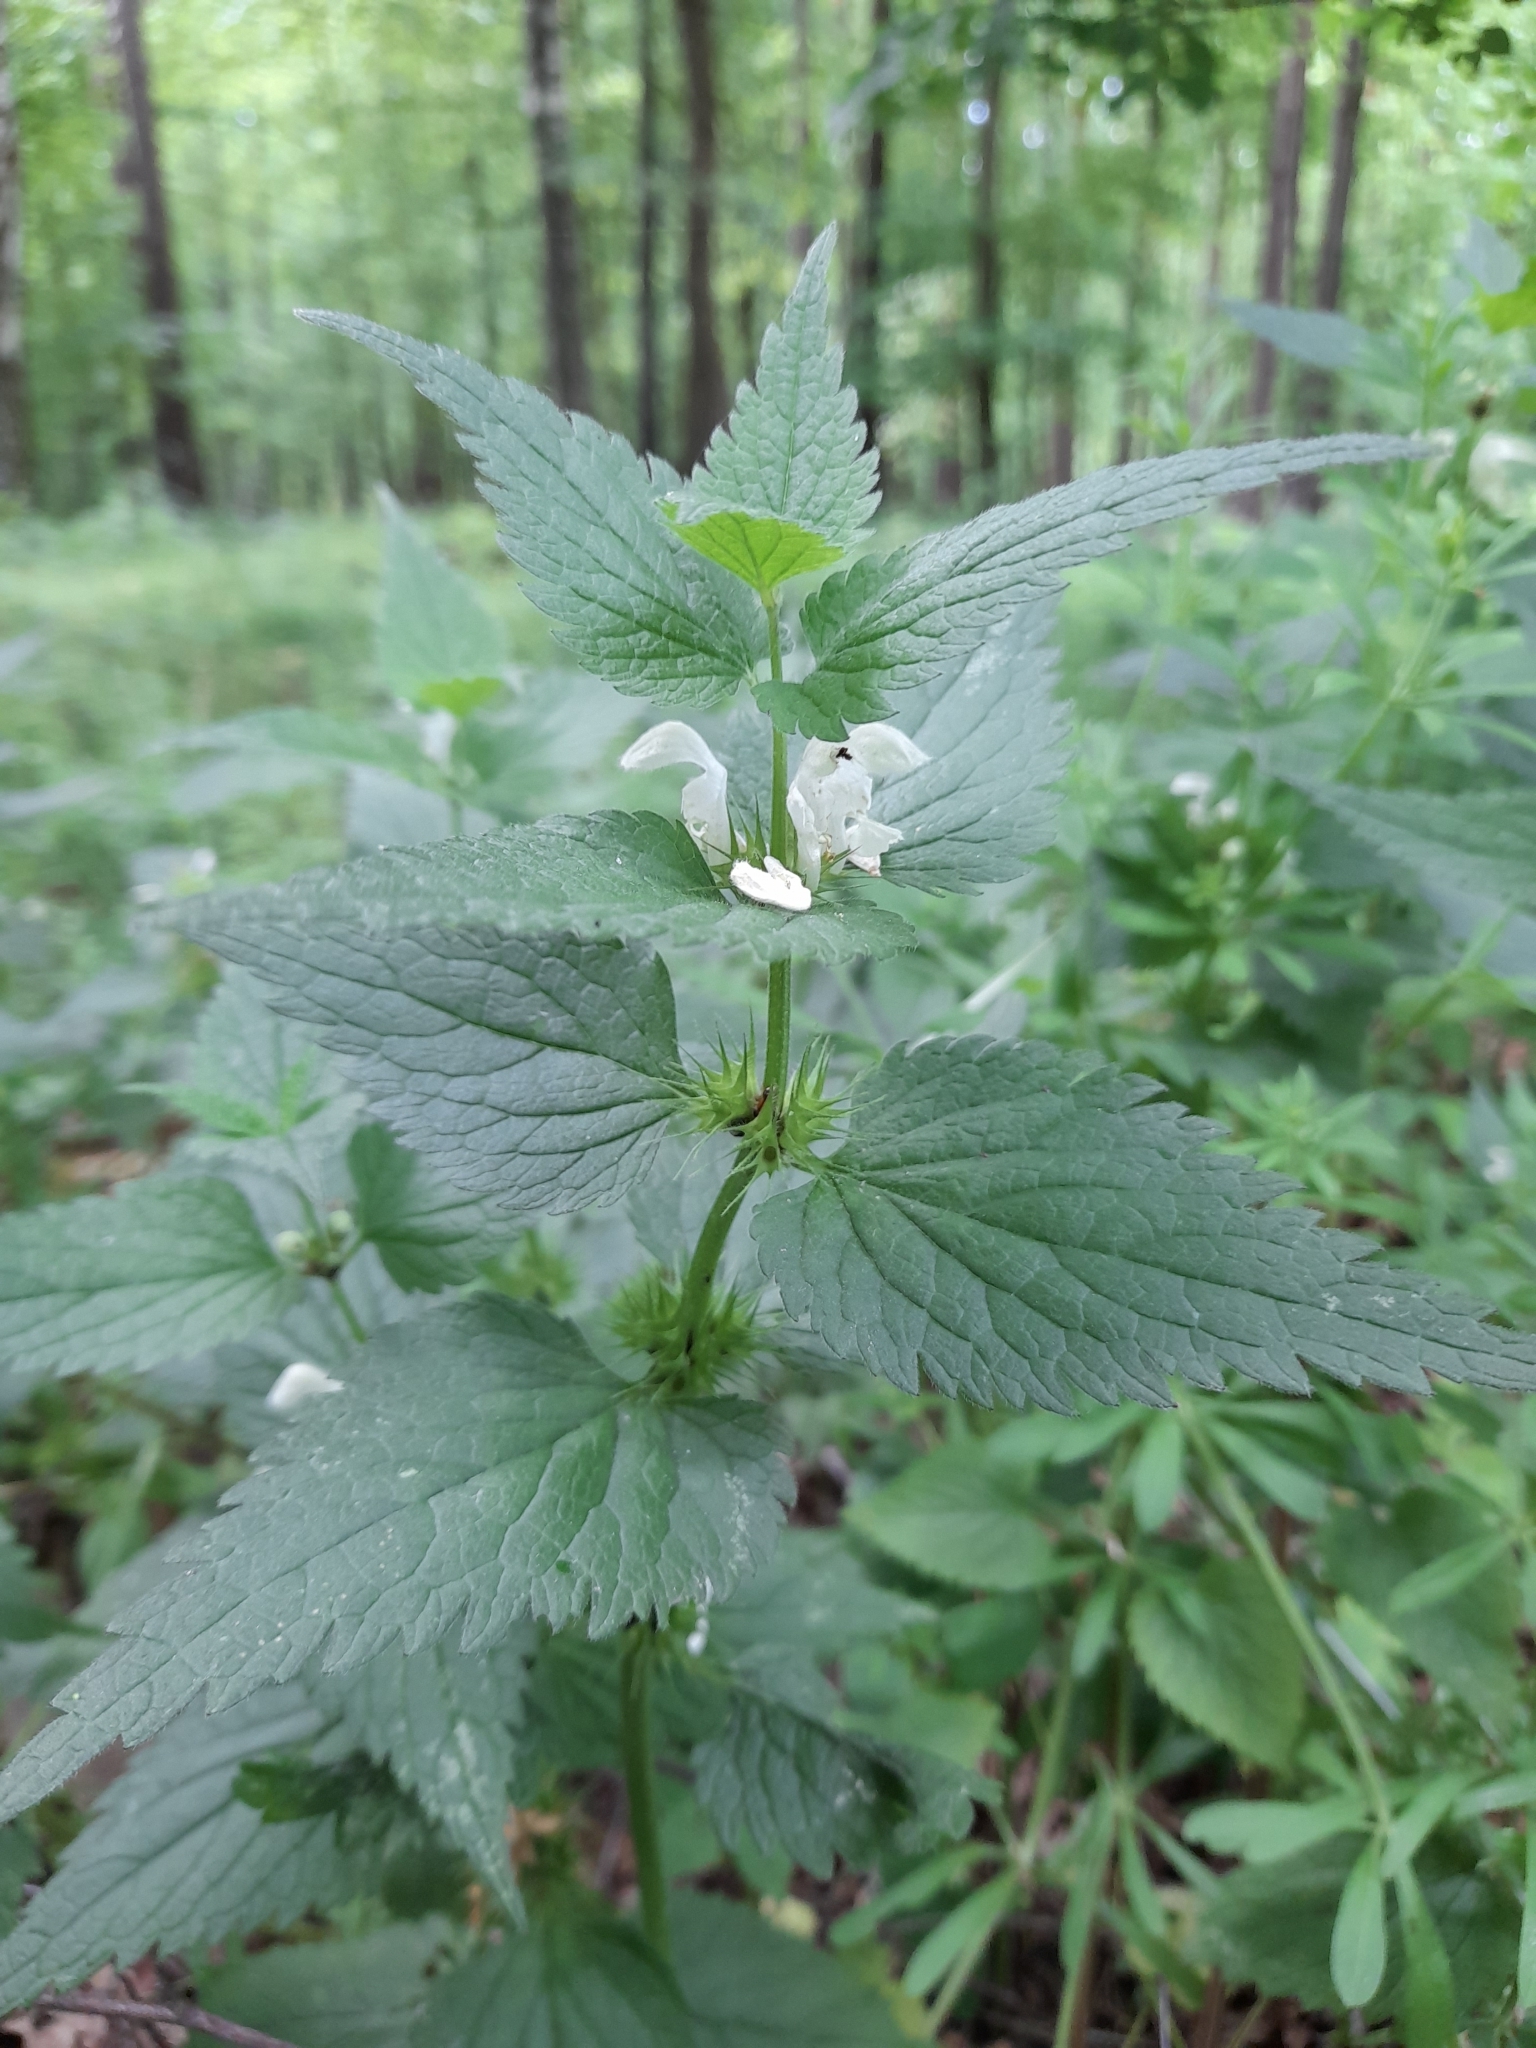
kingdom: Plantae
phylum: Tracheophyta
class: Magnoliopsida
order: Lamiales
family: Lamiaceae
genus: Lamium
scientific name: Lamium album
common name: White dead-nettle
